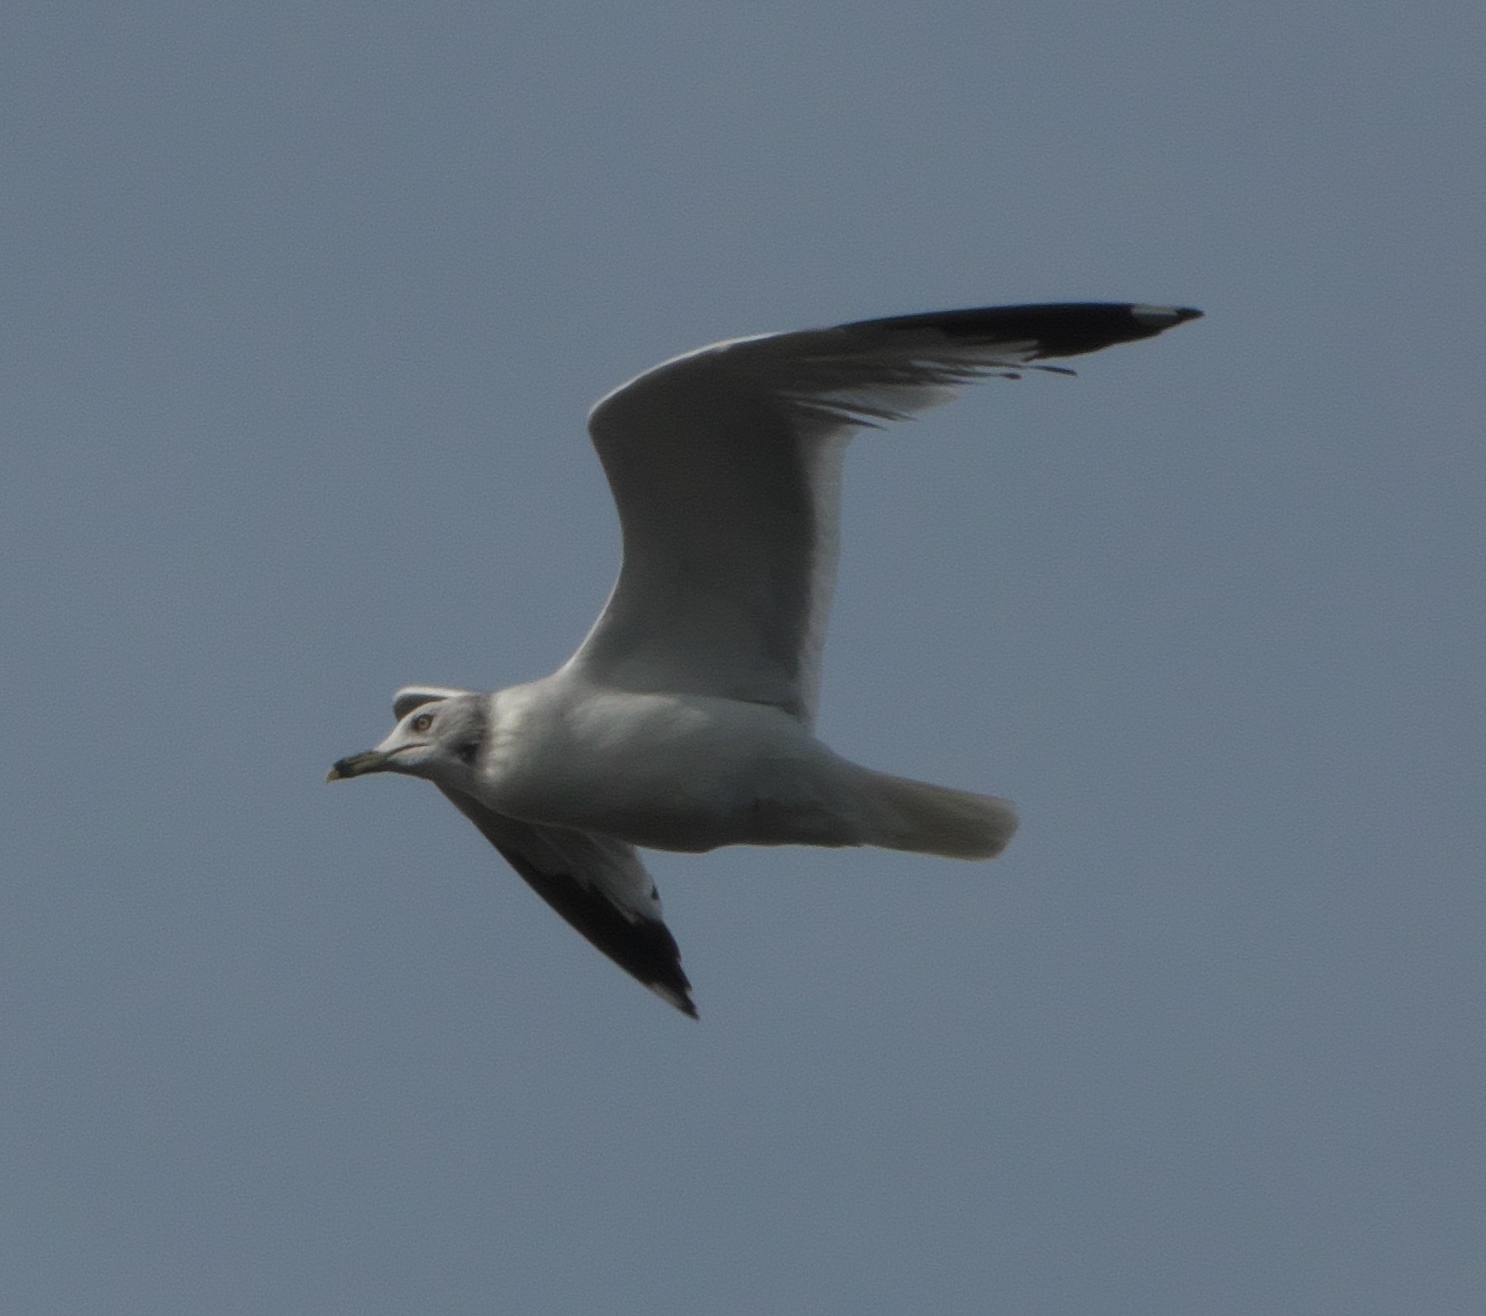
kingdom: Animalia
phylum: Chordata
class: Aves
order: Charadriiformes
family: Laridae
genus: Larus
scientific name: Larus delawarensis
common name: Ring-billed gull
